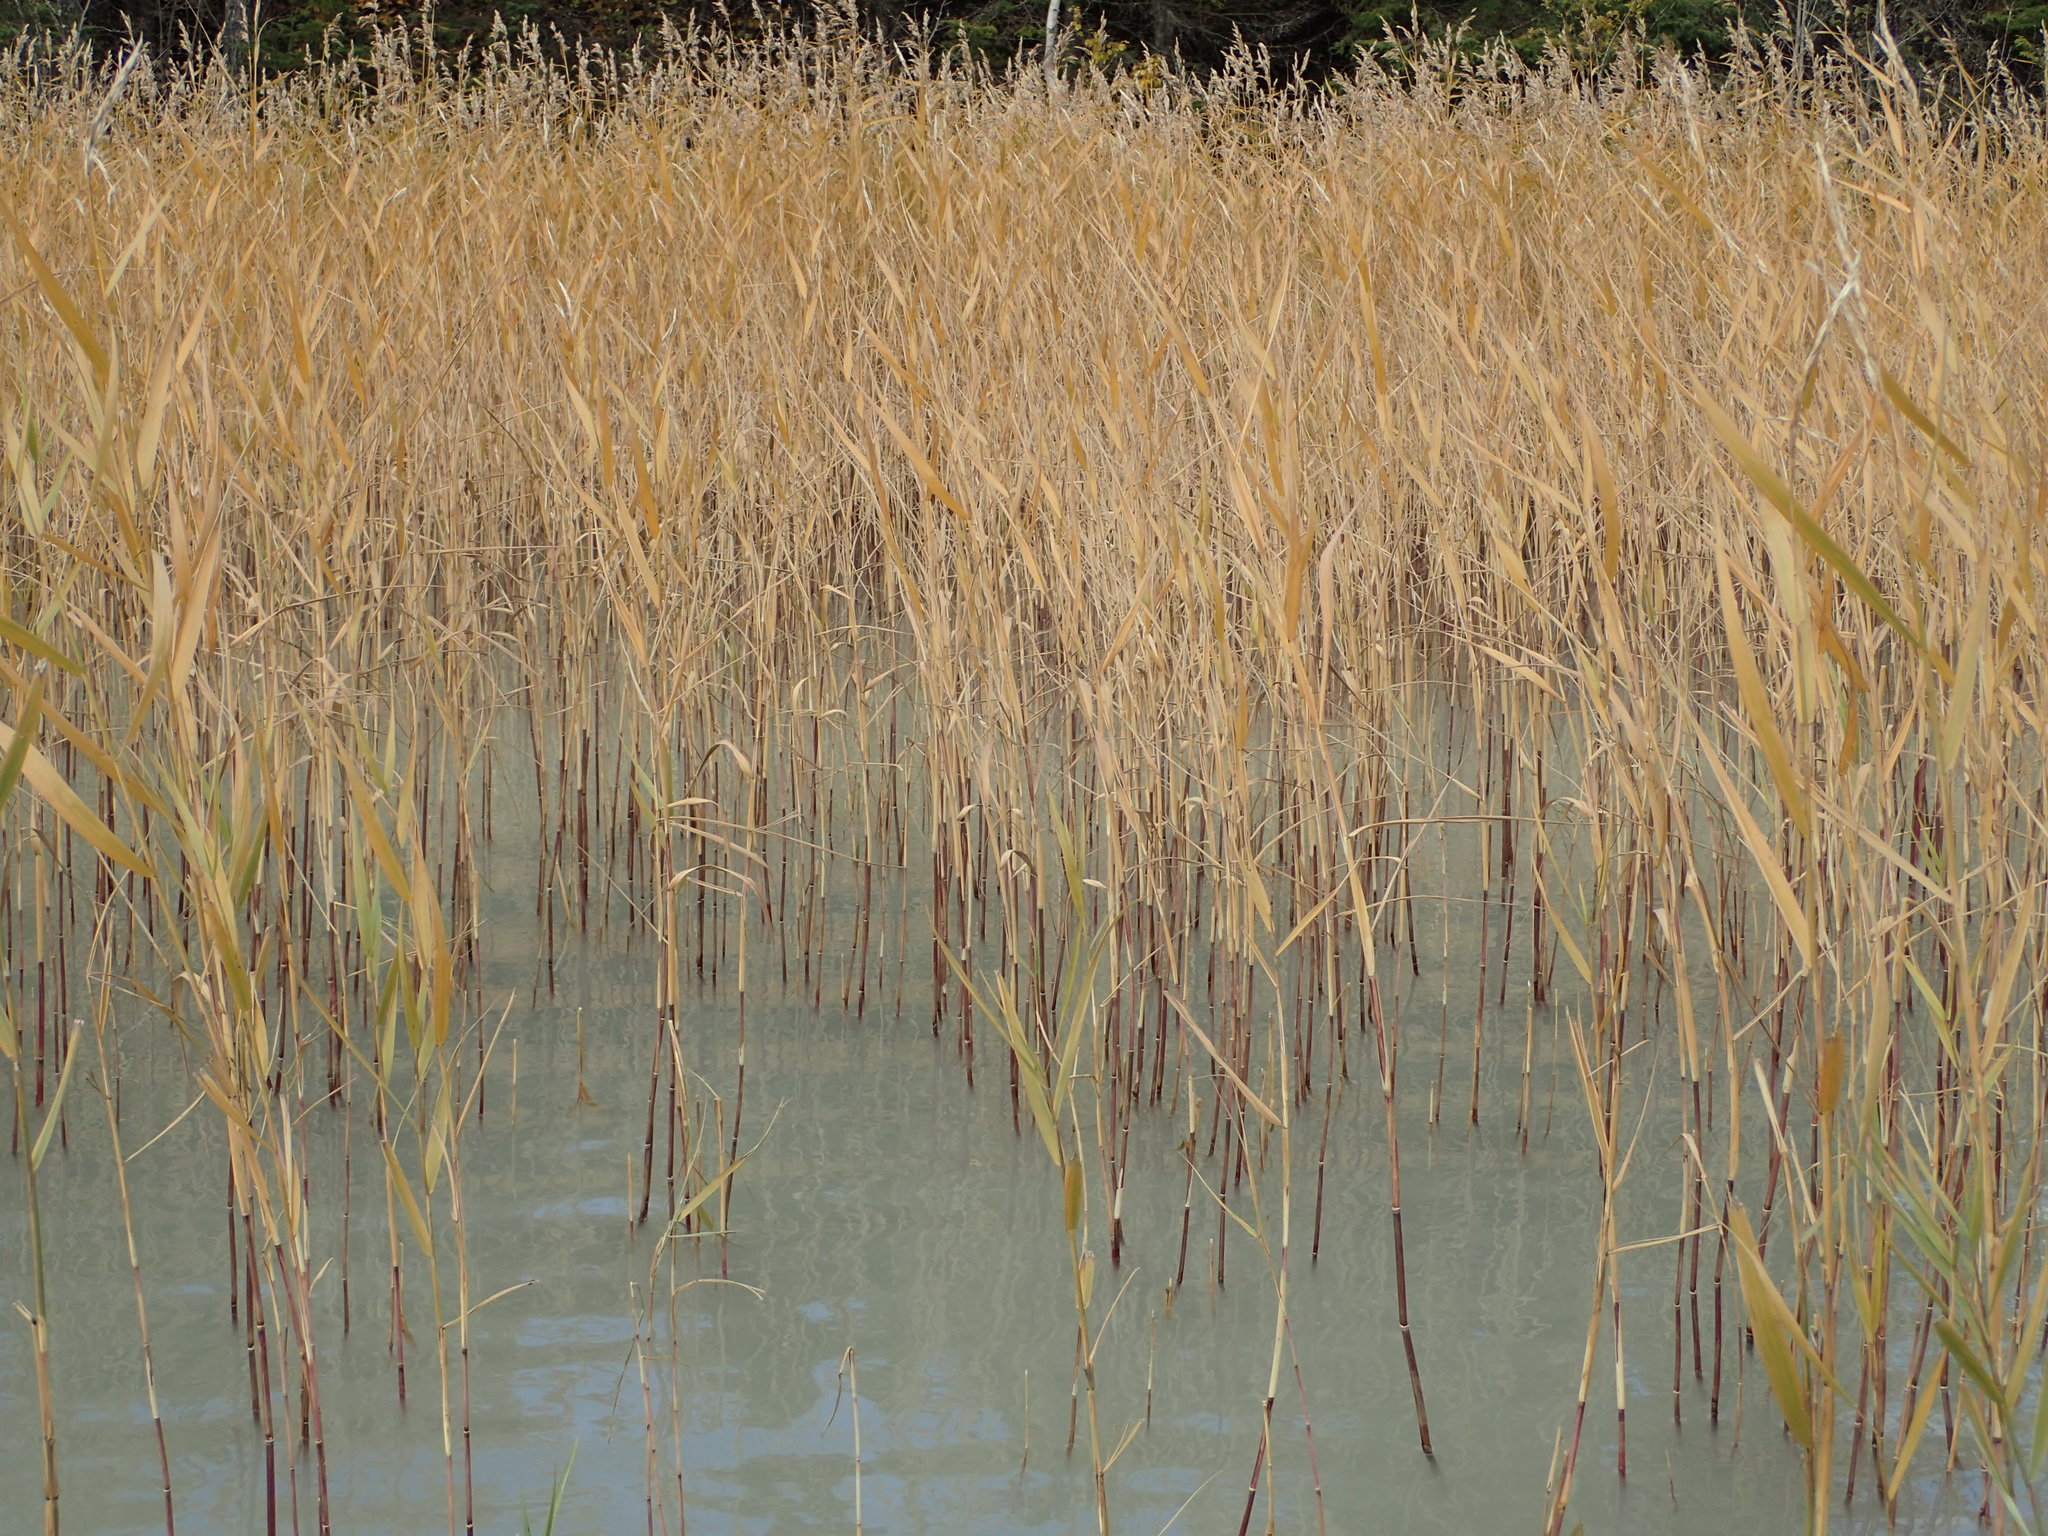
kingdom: Plantae
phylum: Tracheophyta
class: Liliopsida
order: Poales
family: Poaceae
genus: Phragmites
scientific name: Phragmites australis
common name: Common reed
